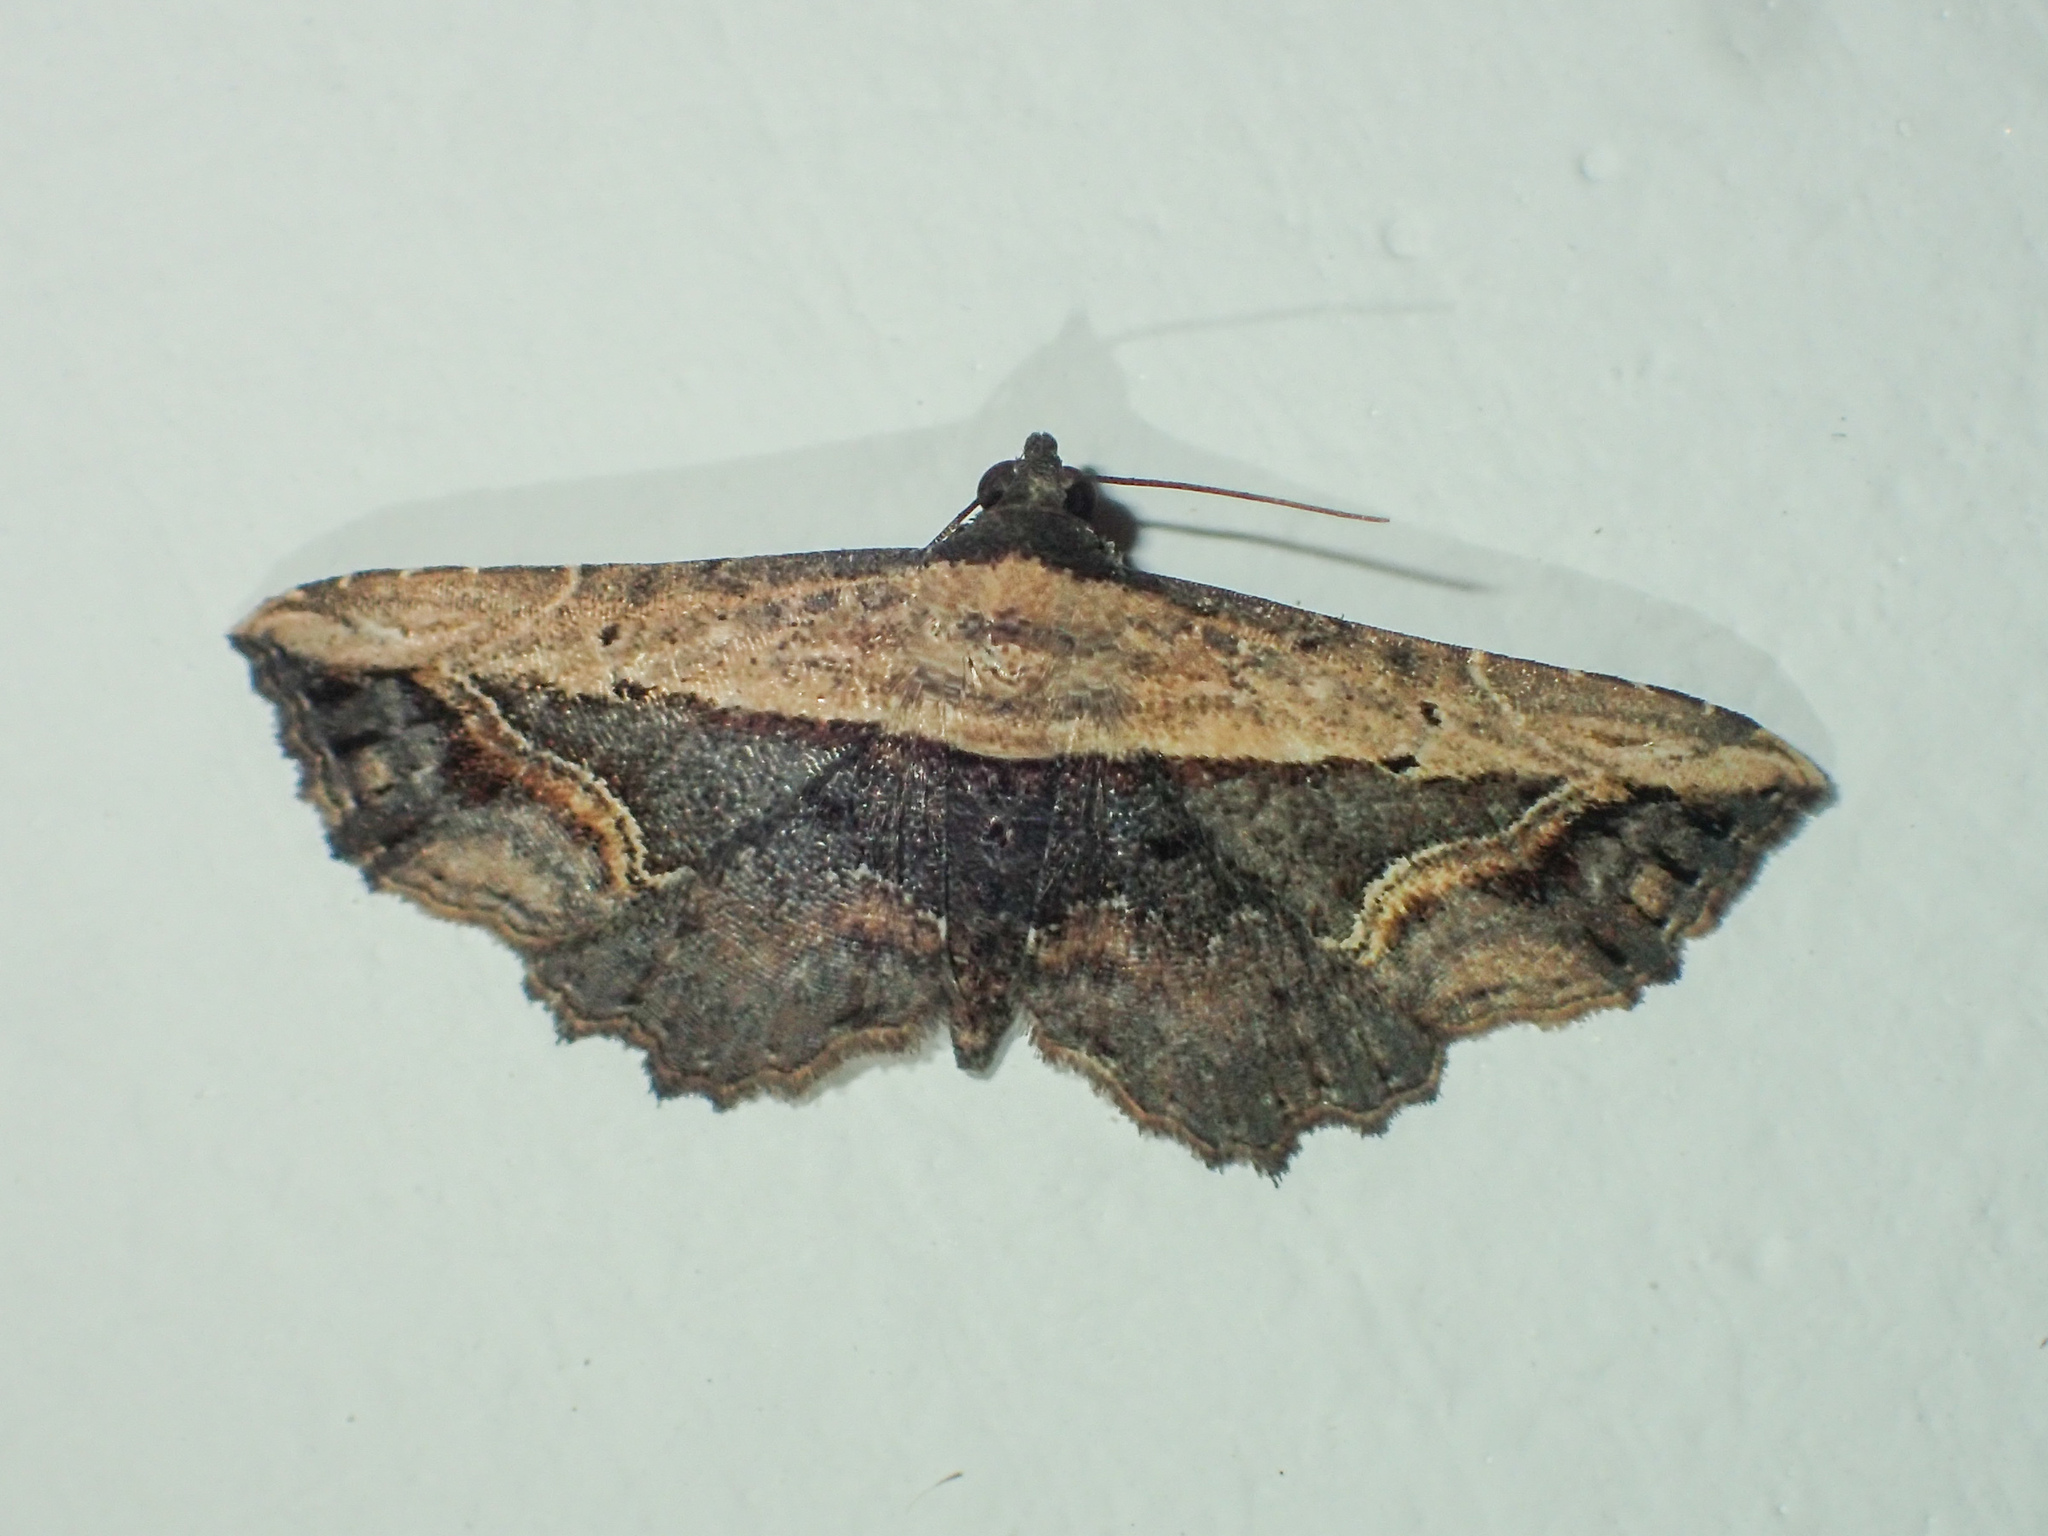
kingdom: Animalia
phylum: Arthropoda
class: Insecta
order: Lepidoptera
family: Noctuidae
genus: Ataboruza
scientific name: Ataboruza stragulata
